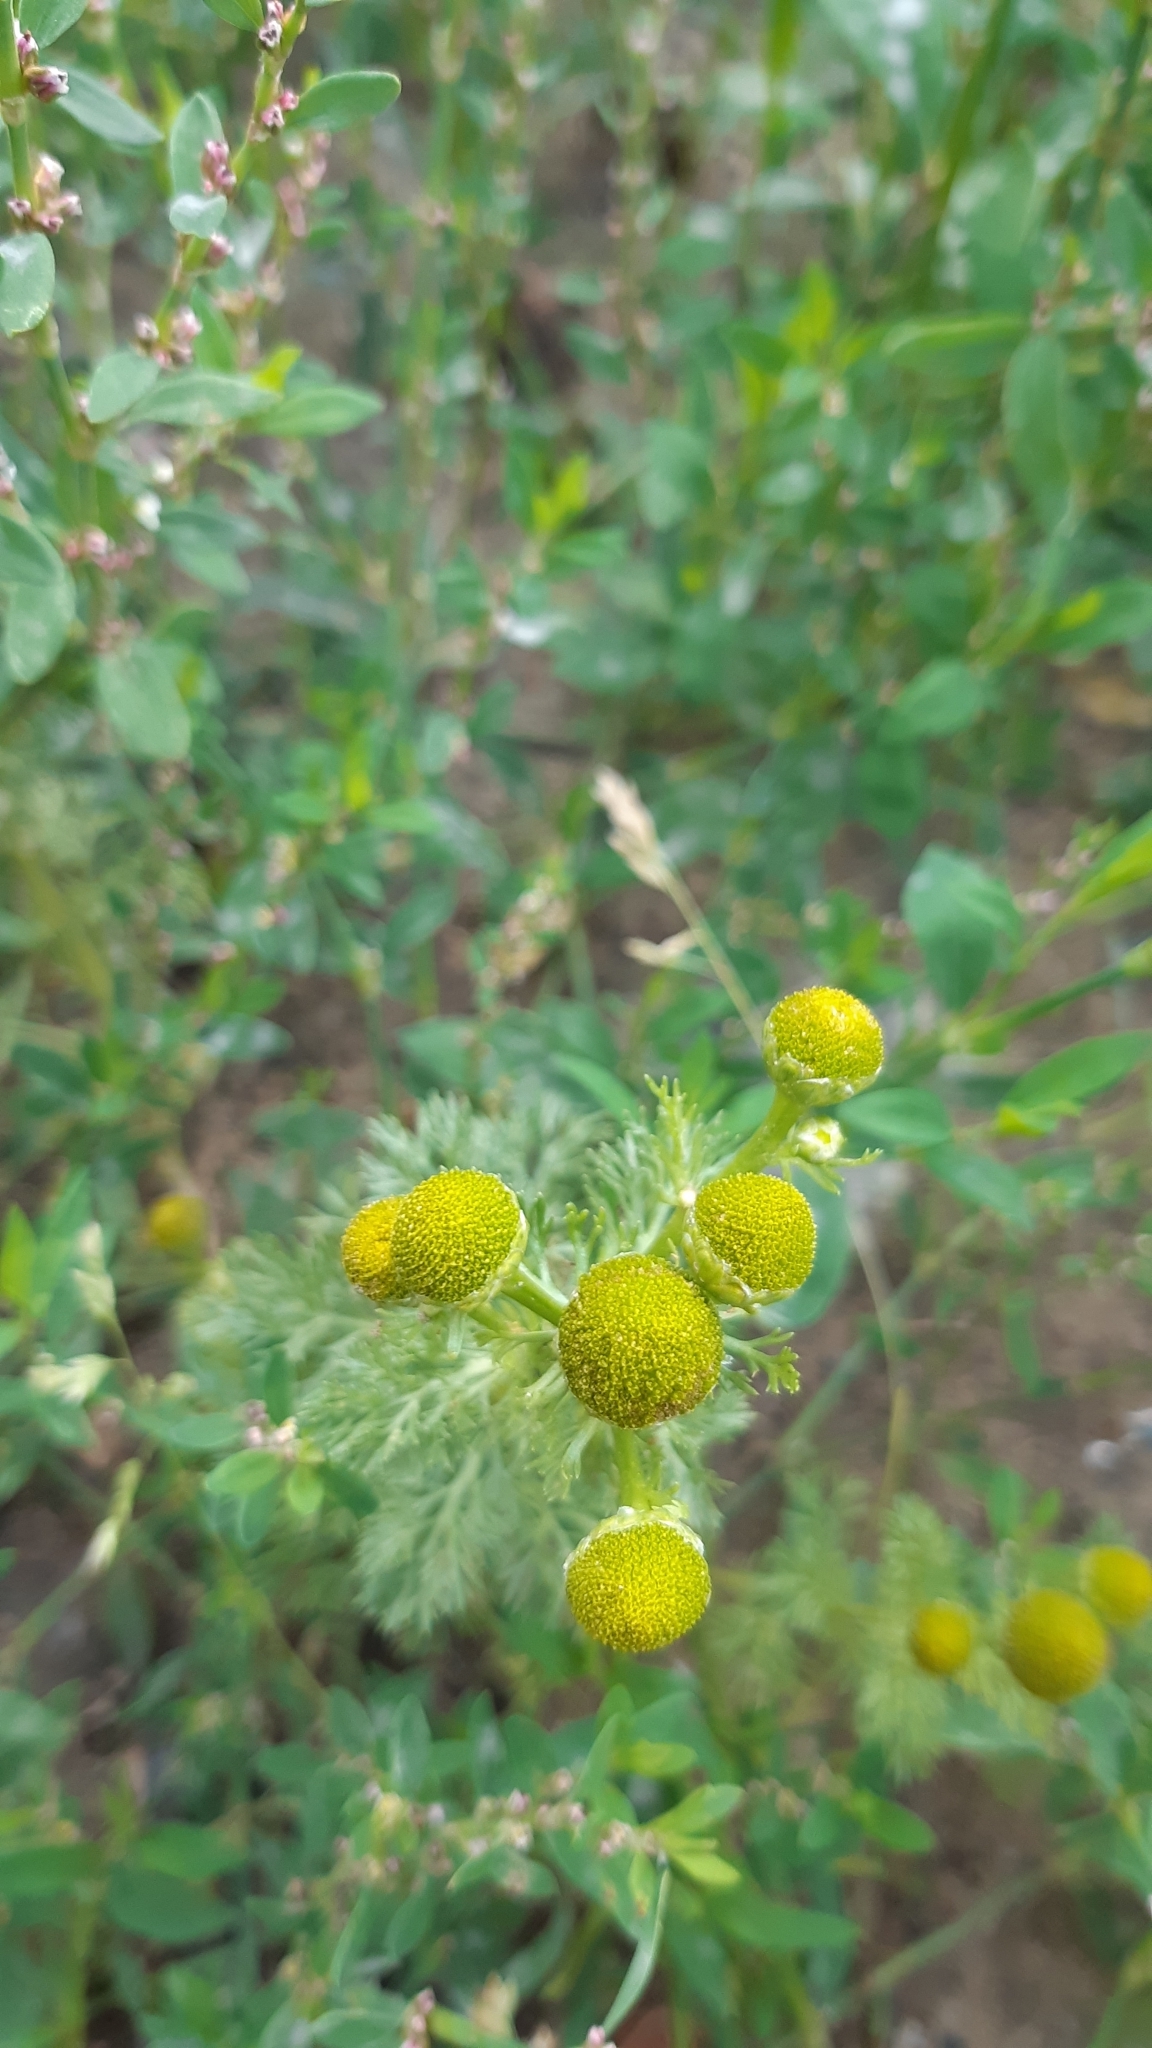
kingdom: Plantae
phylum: Tracheophyta
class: Magnoliopsida
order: Asterales
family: Asteraceae
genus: Matricaria
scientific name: Matricaria discoidea
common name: Disc mayweed
